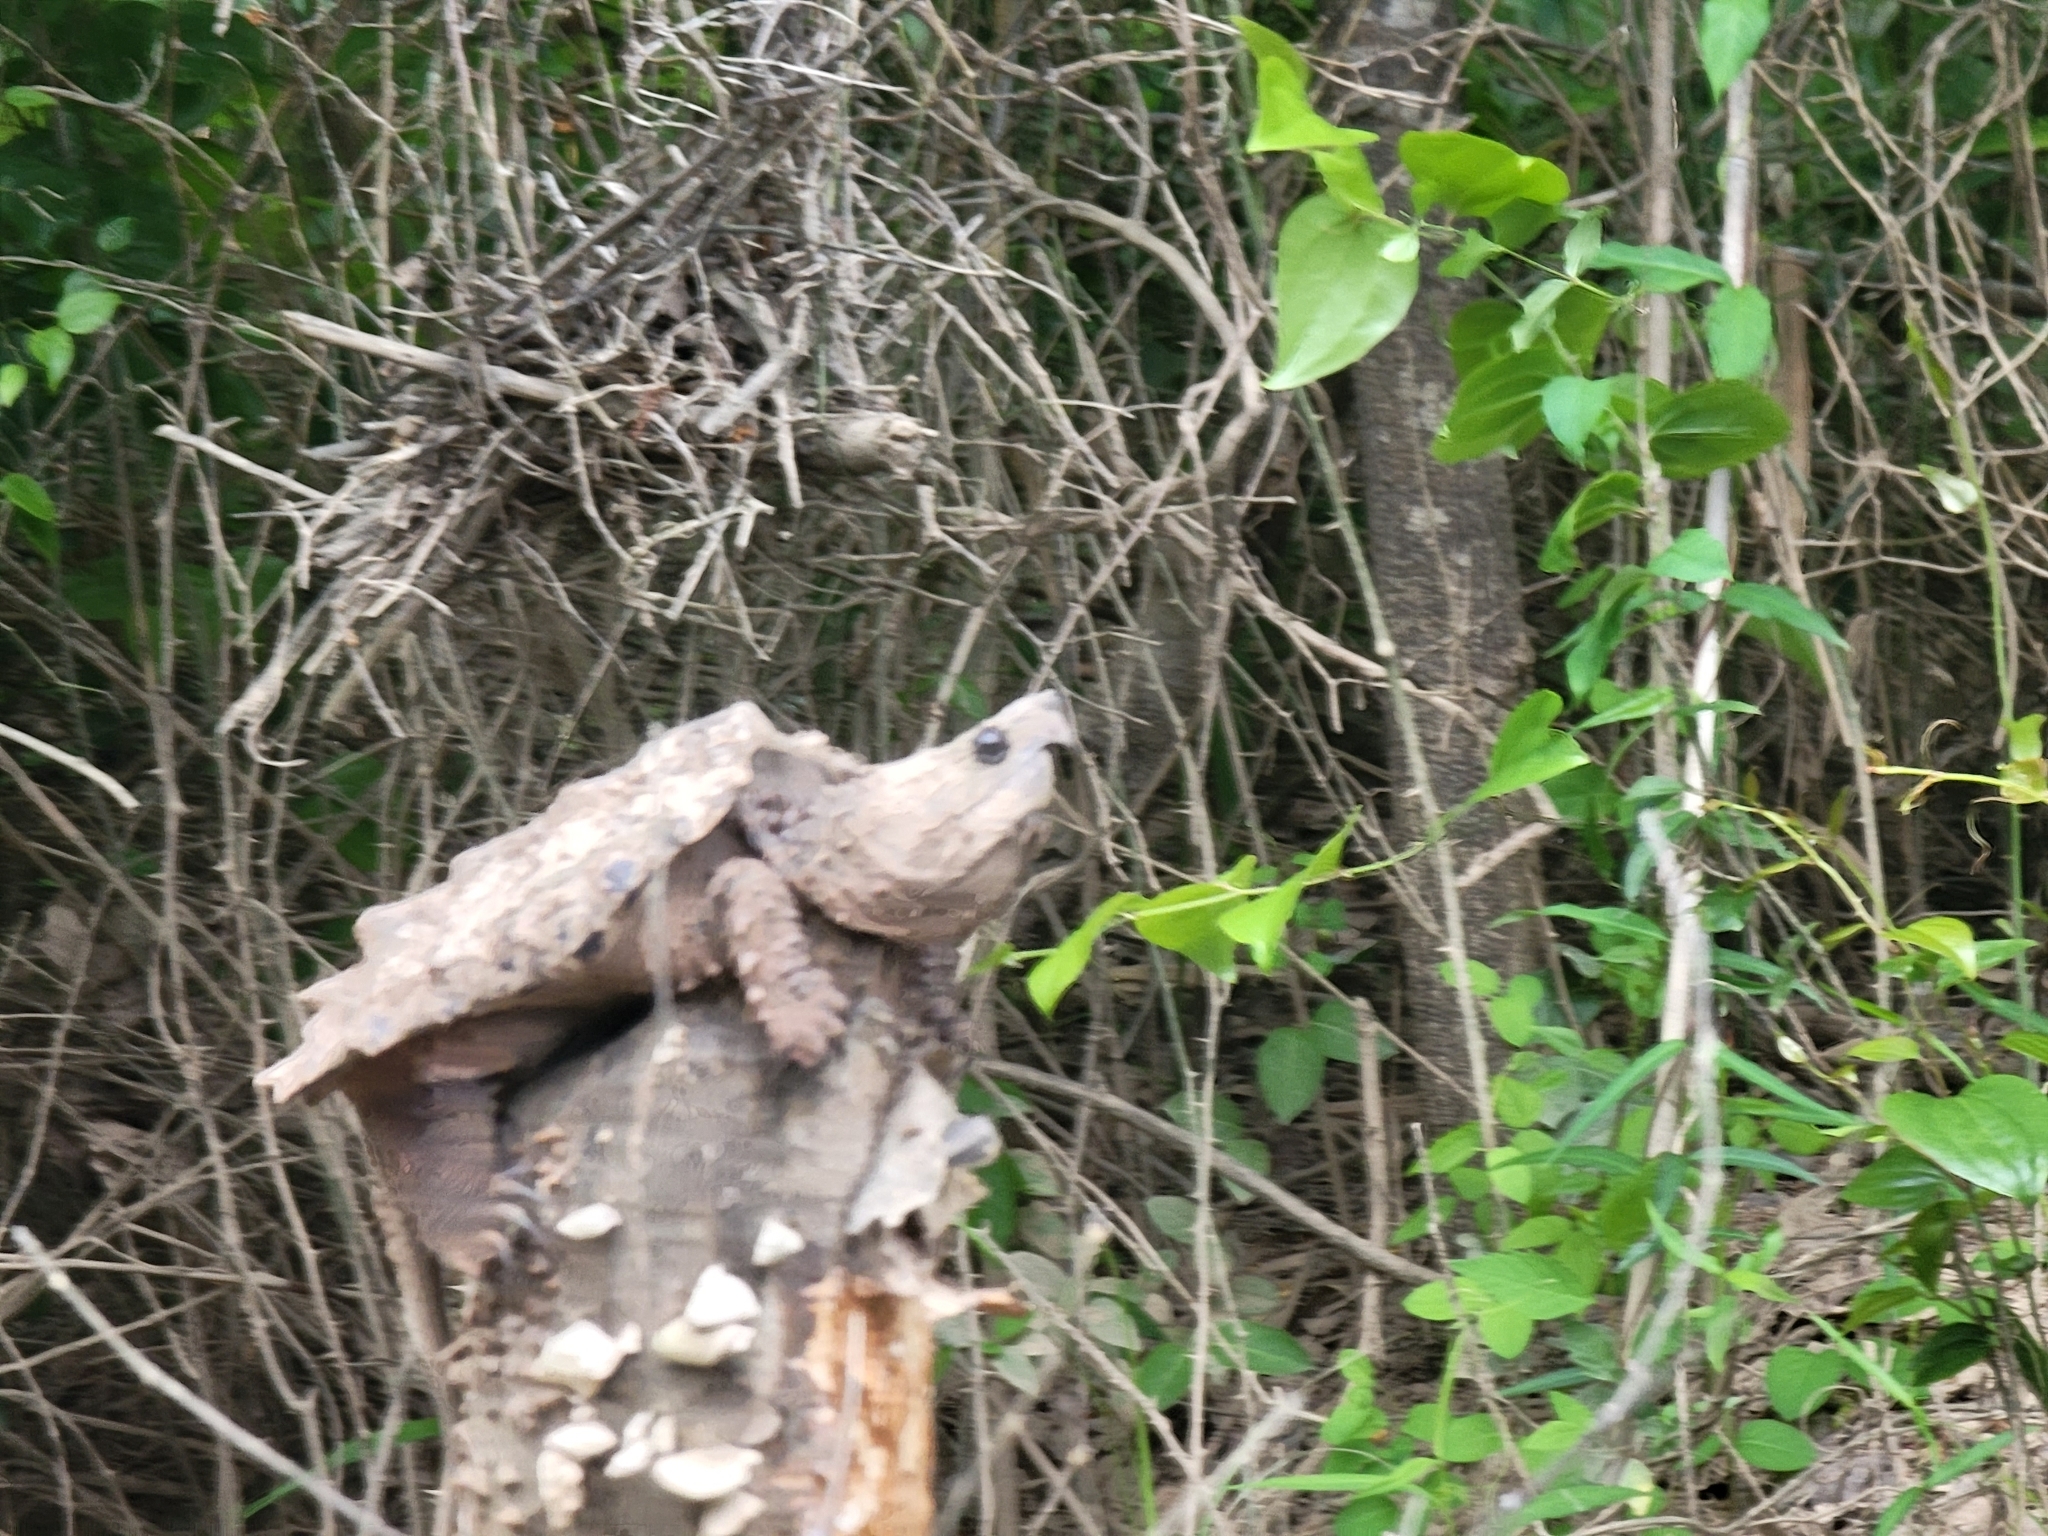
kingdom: Animalia
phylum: Chordata
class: Testudines
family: Chelydridae
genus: Macrochelys
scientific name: Macrochelys temminckii
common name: Alligator snapping turtle
